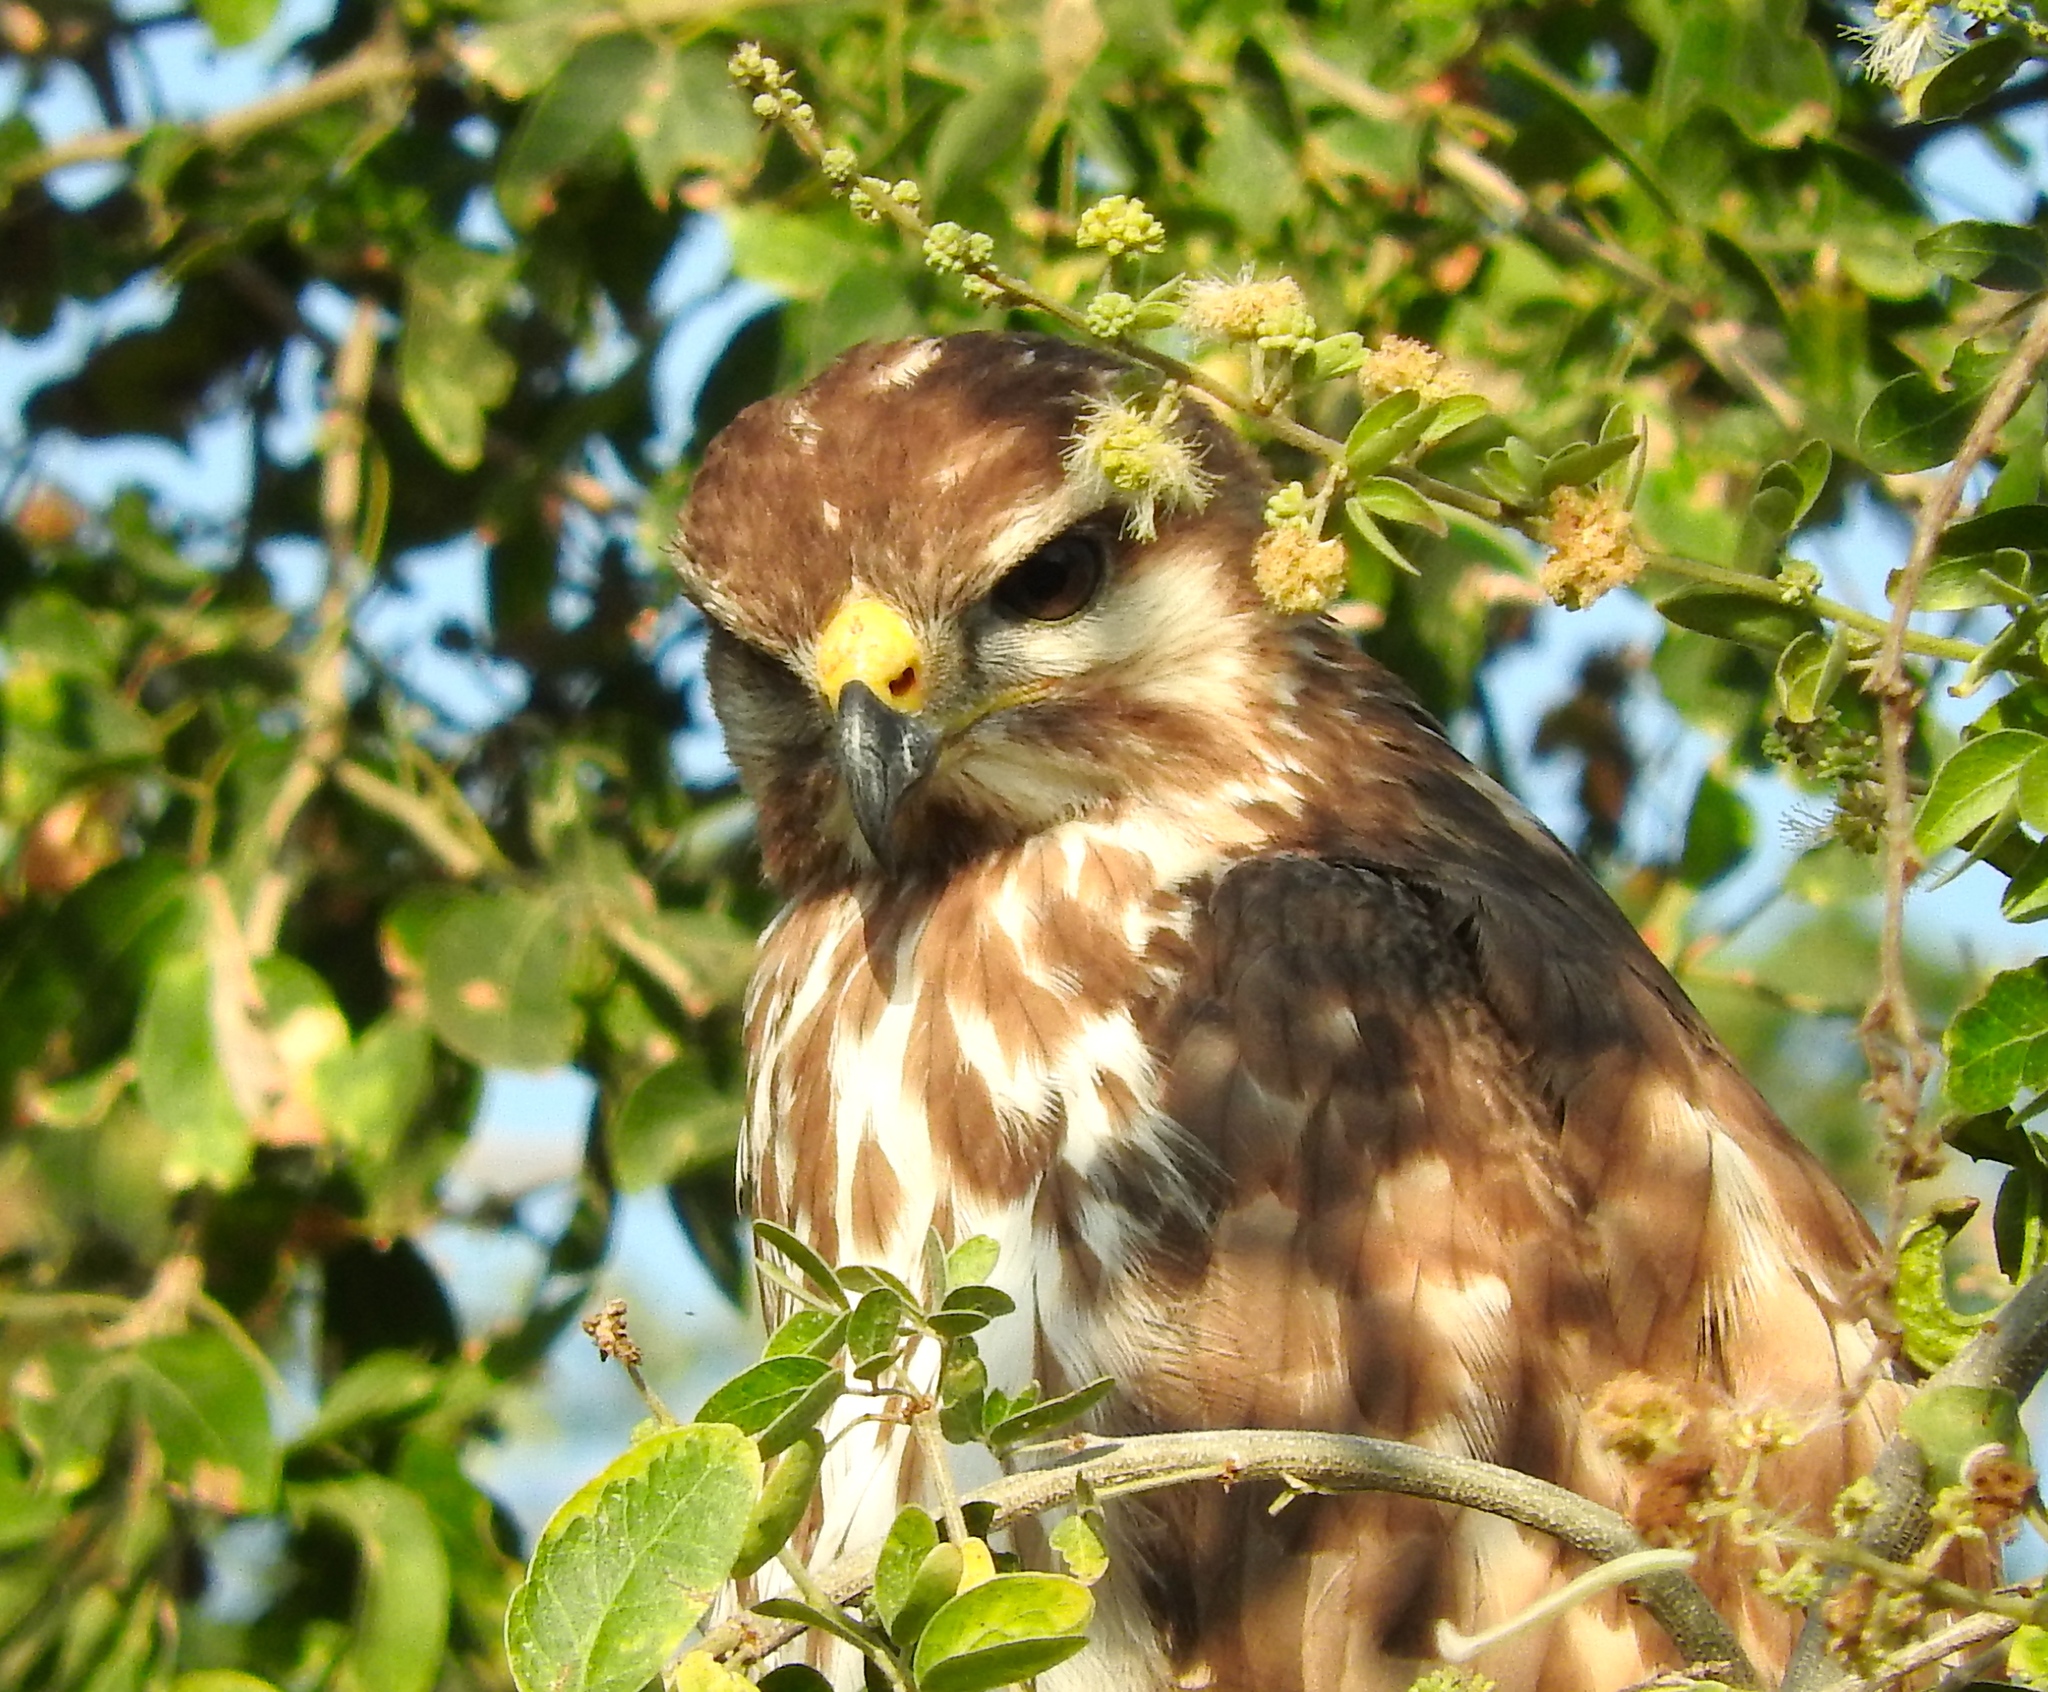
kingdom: Animalia
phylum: Chordata
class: Aves
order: Accipitriformes
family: Accipitridae
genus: Buteo
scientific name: Buteo nitidus
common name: Grey-lined hawk
